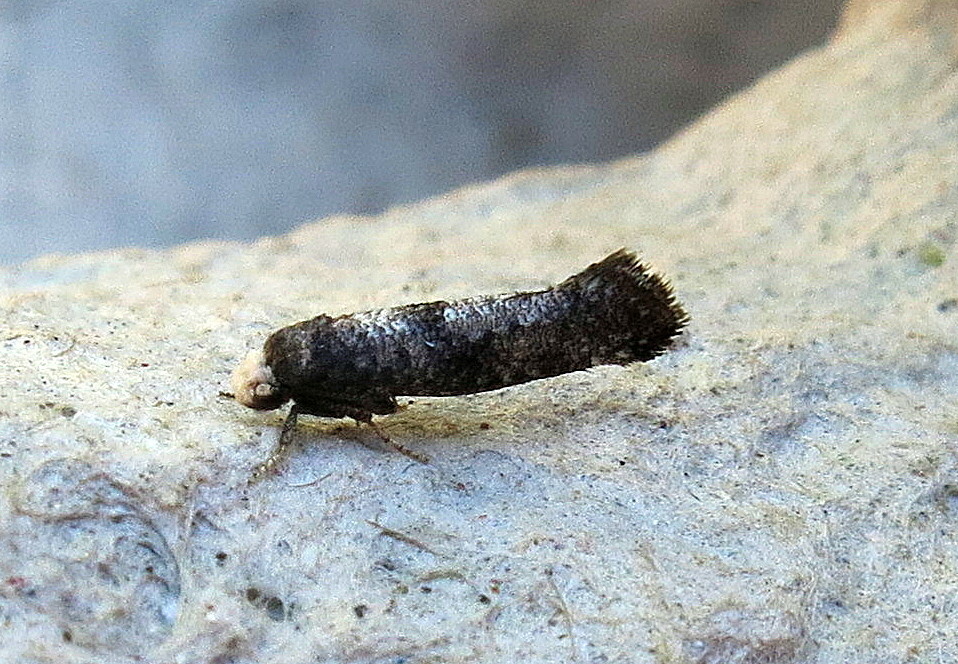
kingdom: Animalia
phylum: Arthropoda
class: Insecta
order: Lepidoptera
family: Yponomeutidae
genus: Swammerdamia
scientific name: Swammerdamia pyrella
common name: Little ermine moth
